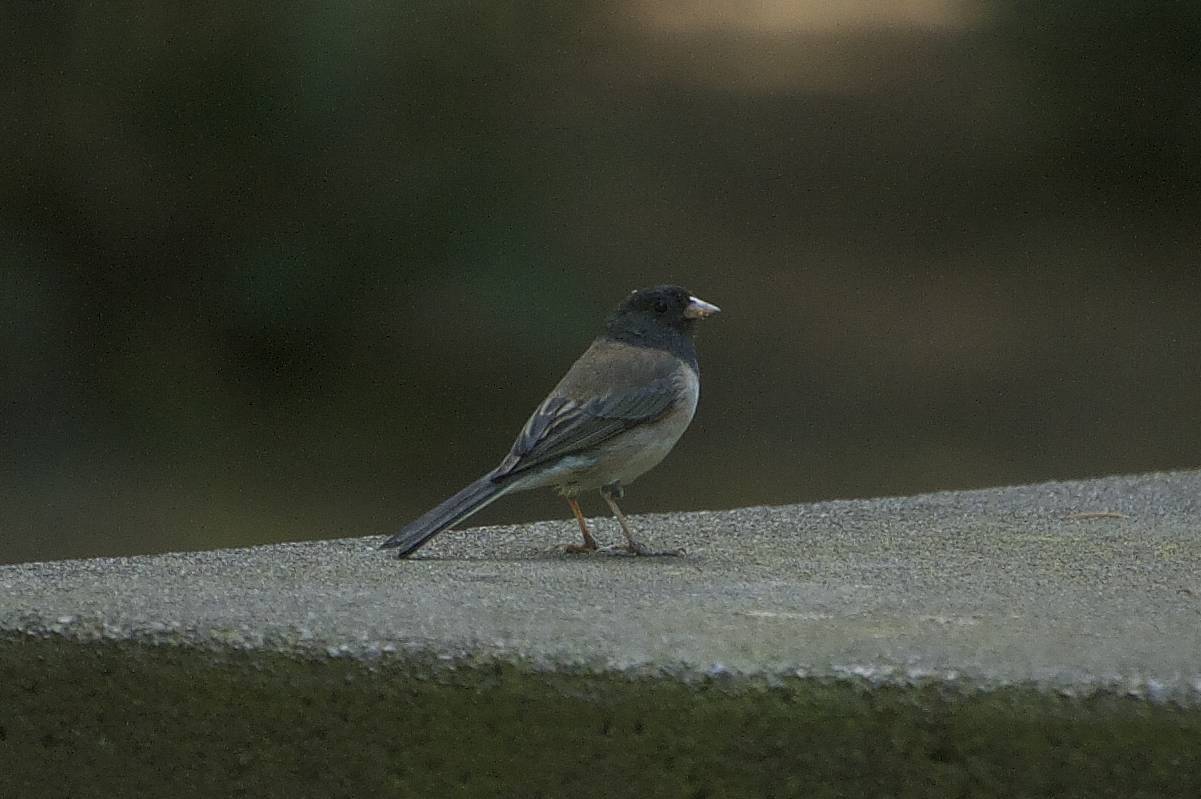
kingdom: Animalia
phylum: Chordata
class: Aves
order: Passeriformes
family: Passerellidae
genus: Junco
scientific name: Junco hyemalis
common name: Dark-eyed junco
